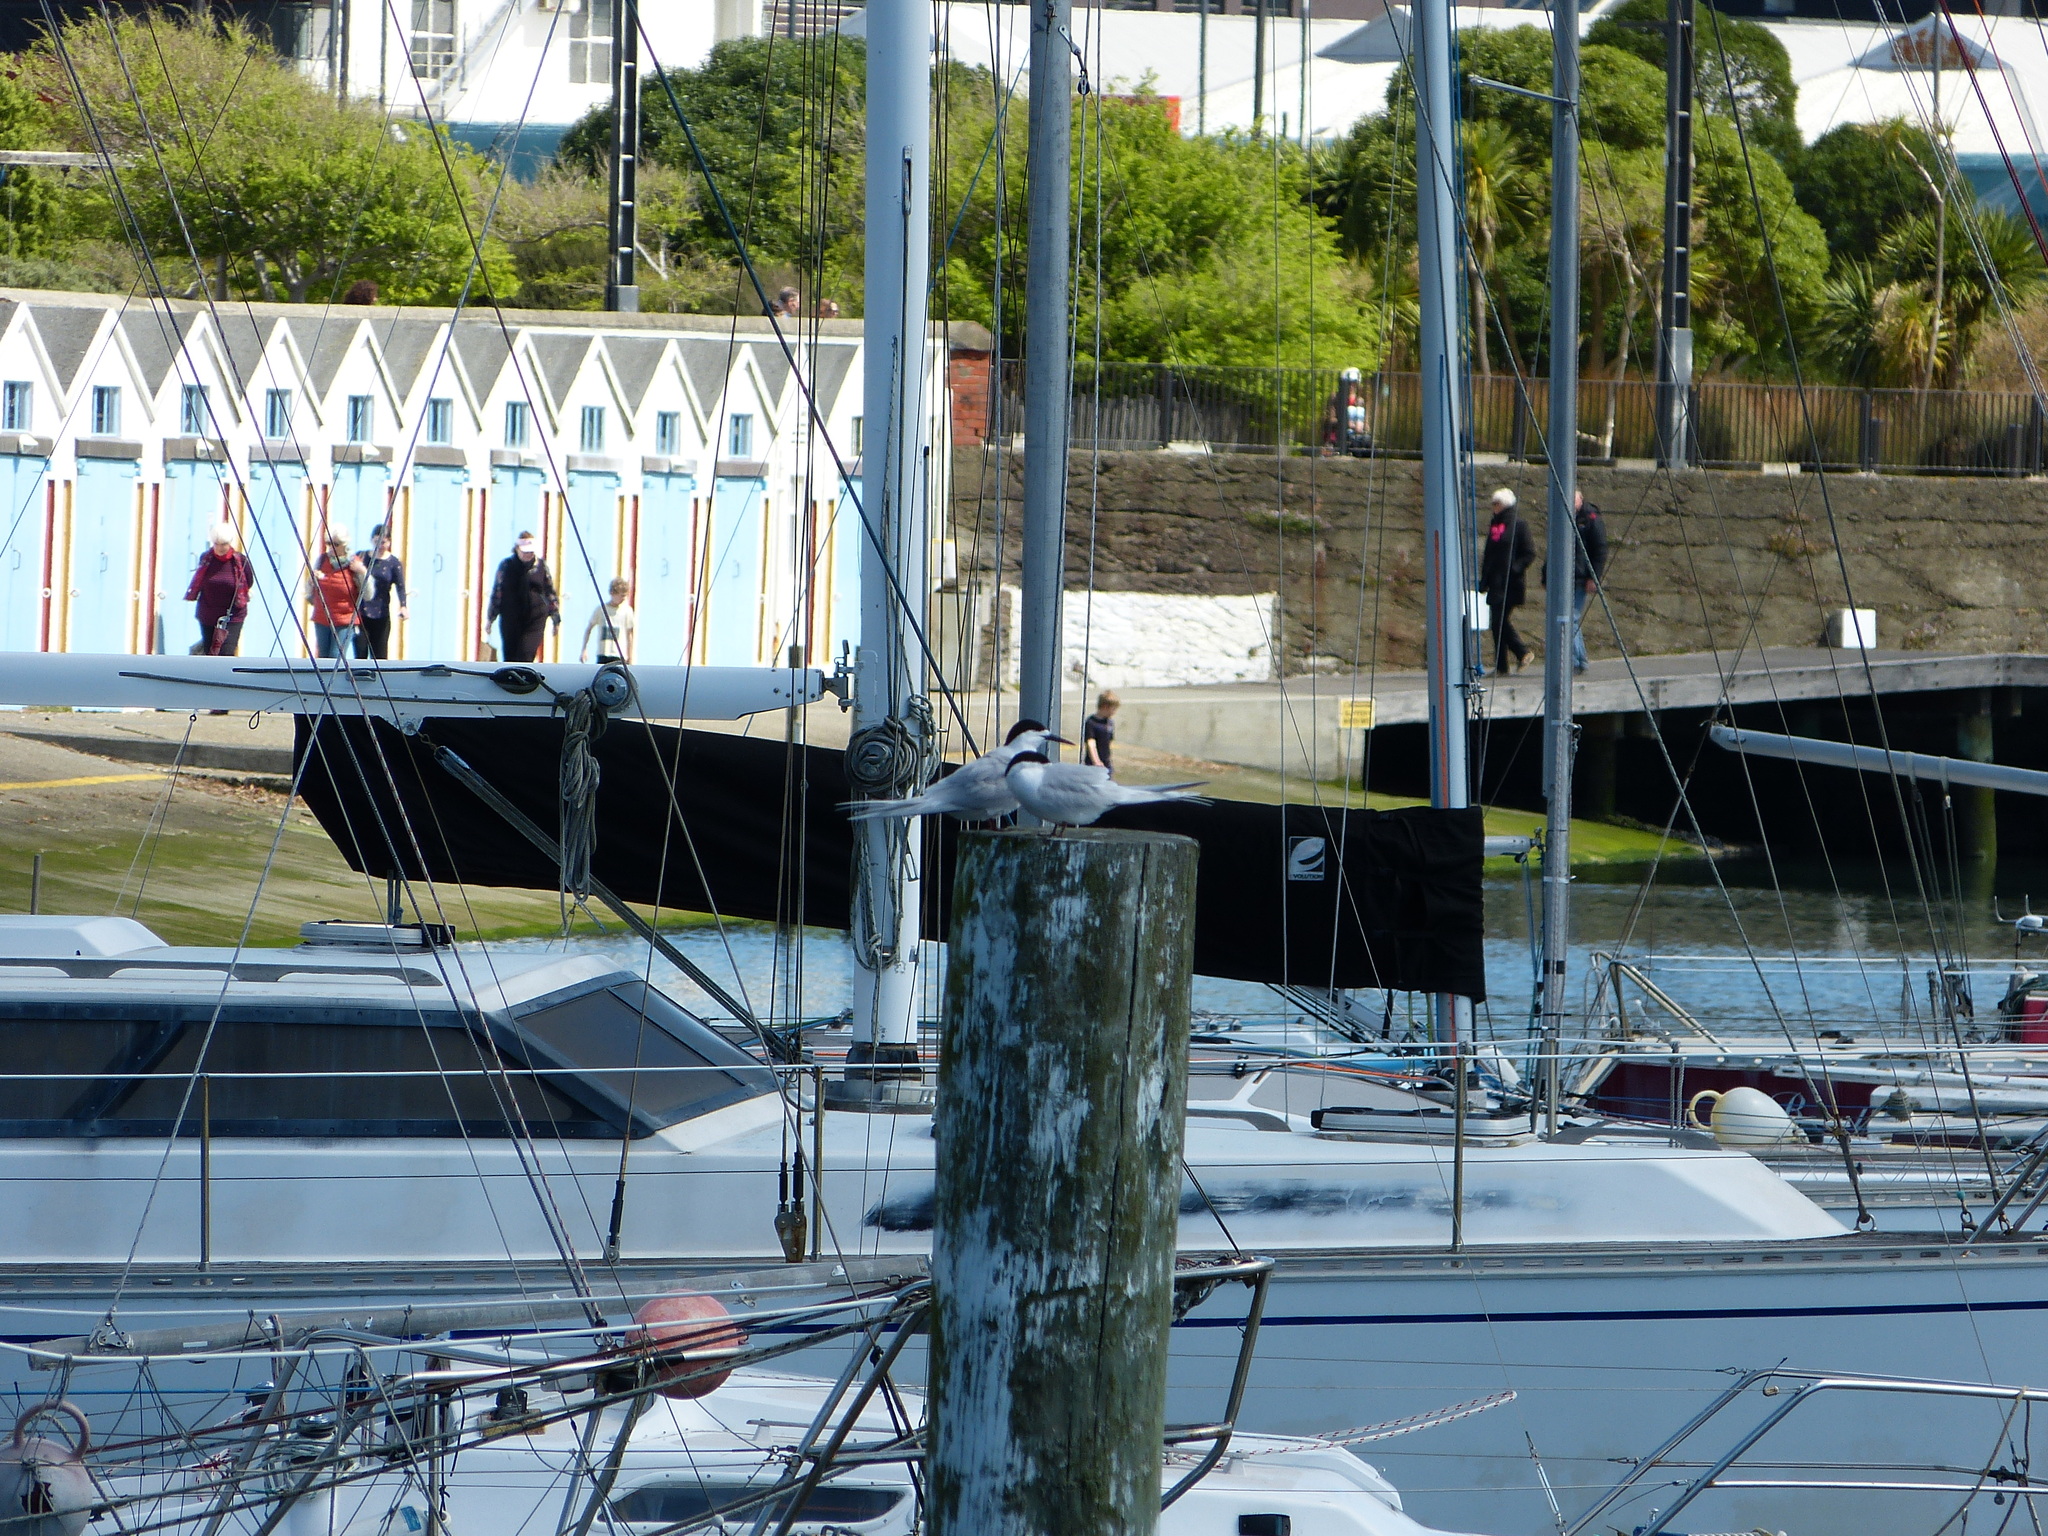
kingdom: Animalia
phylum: Chordata
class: Aves
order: Charadriiformes
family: Laridae
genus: Sterna
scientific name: Sterna striata
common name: White-fronted tern
